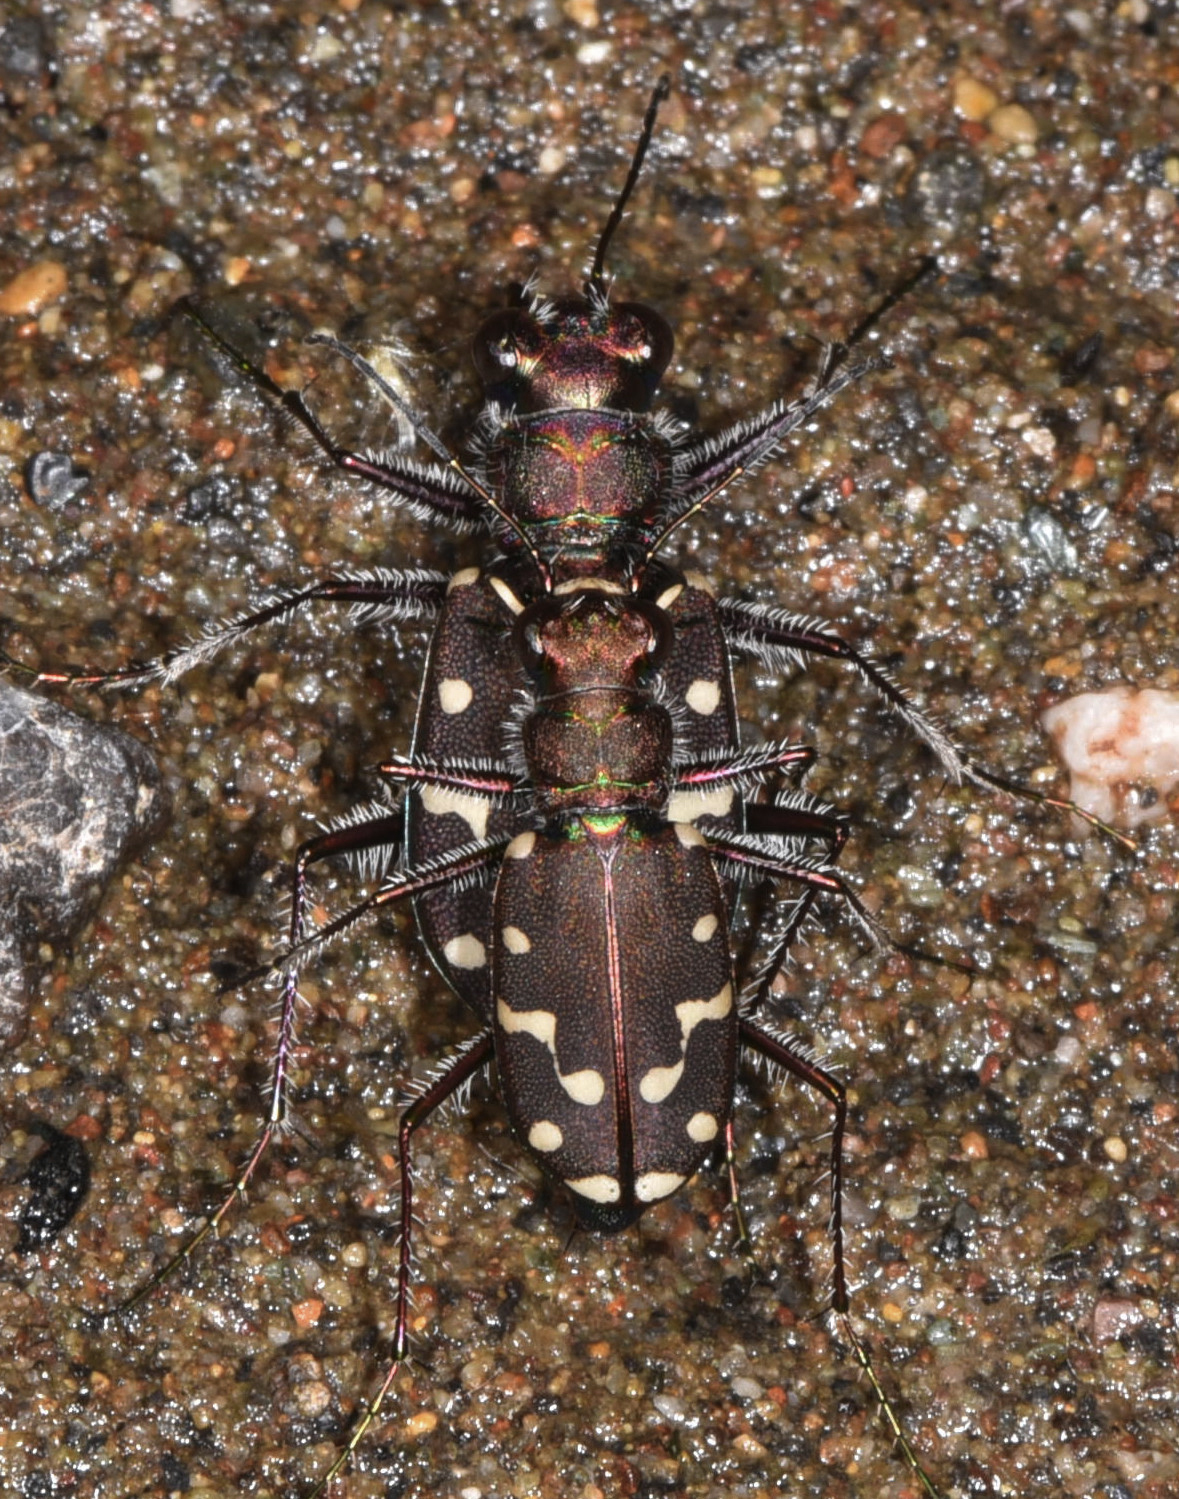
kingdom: Animalia
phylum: Arthropoda
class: Insecta
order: Coleoptera
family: Carabidae
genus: Cicindela
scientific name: Cicindela oregona
